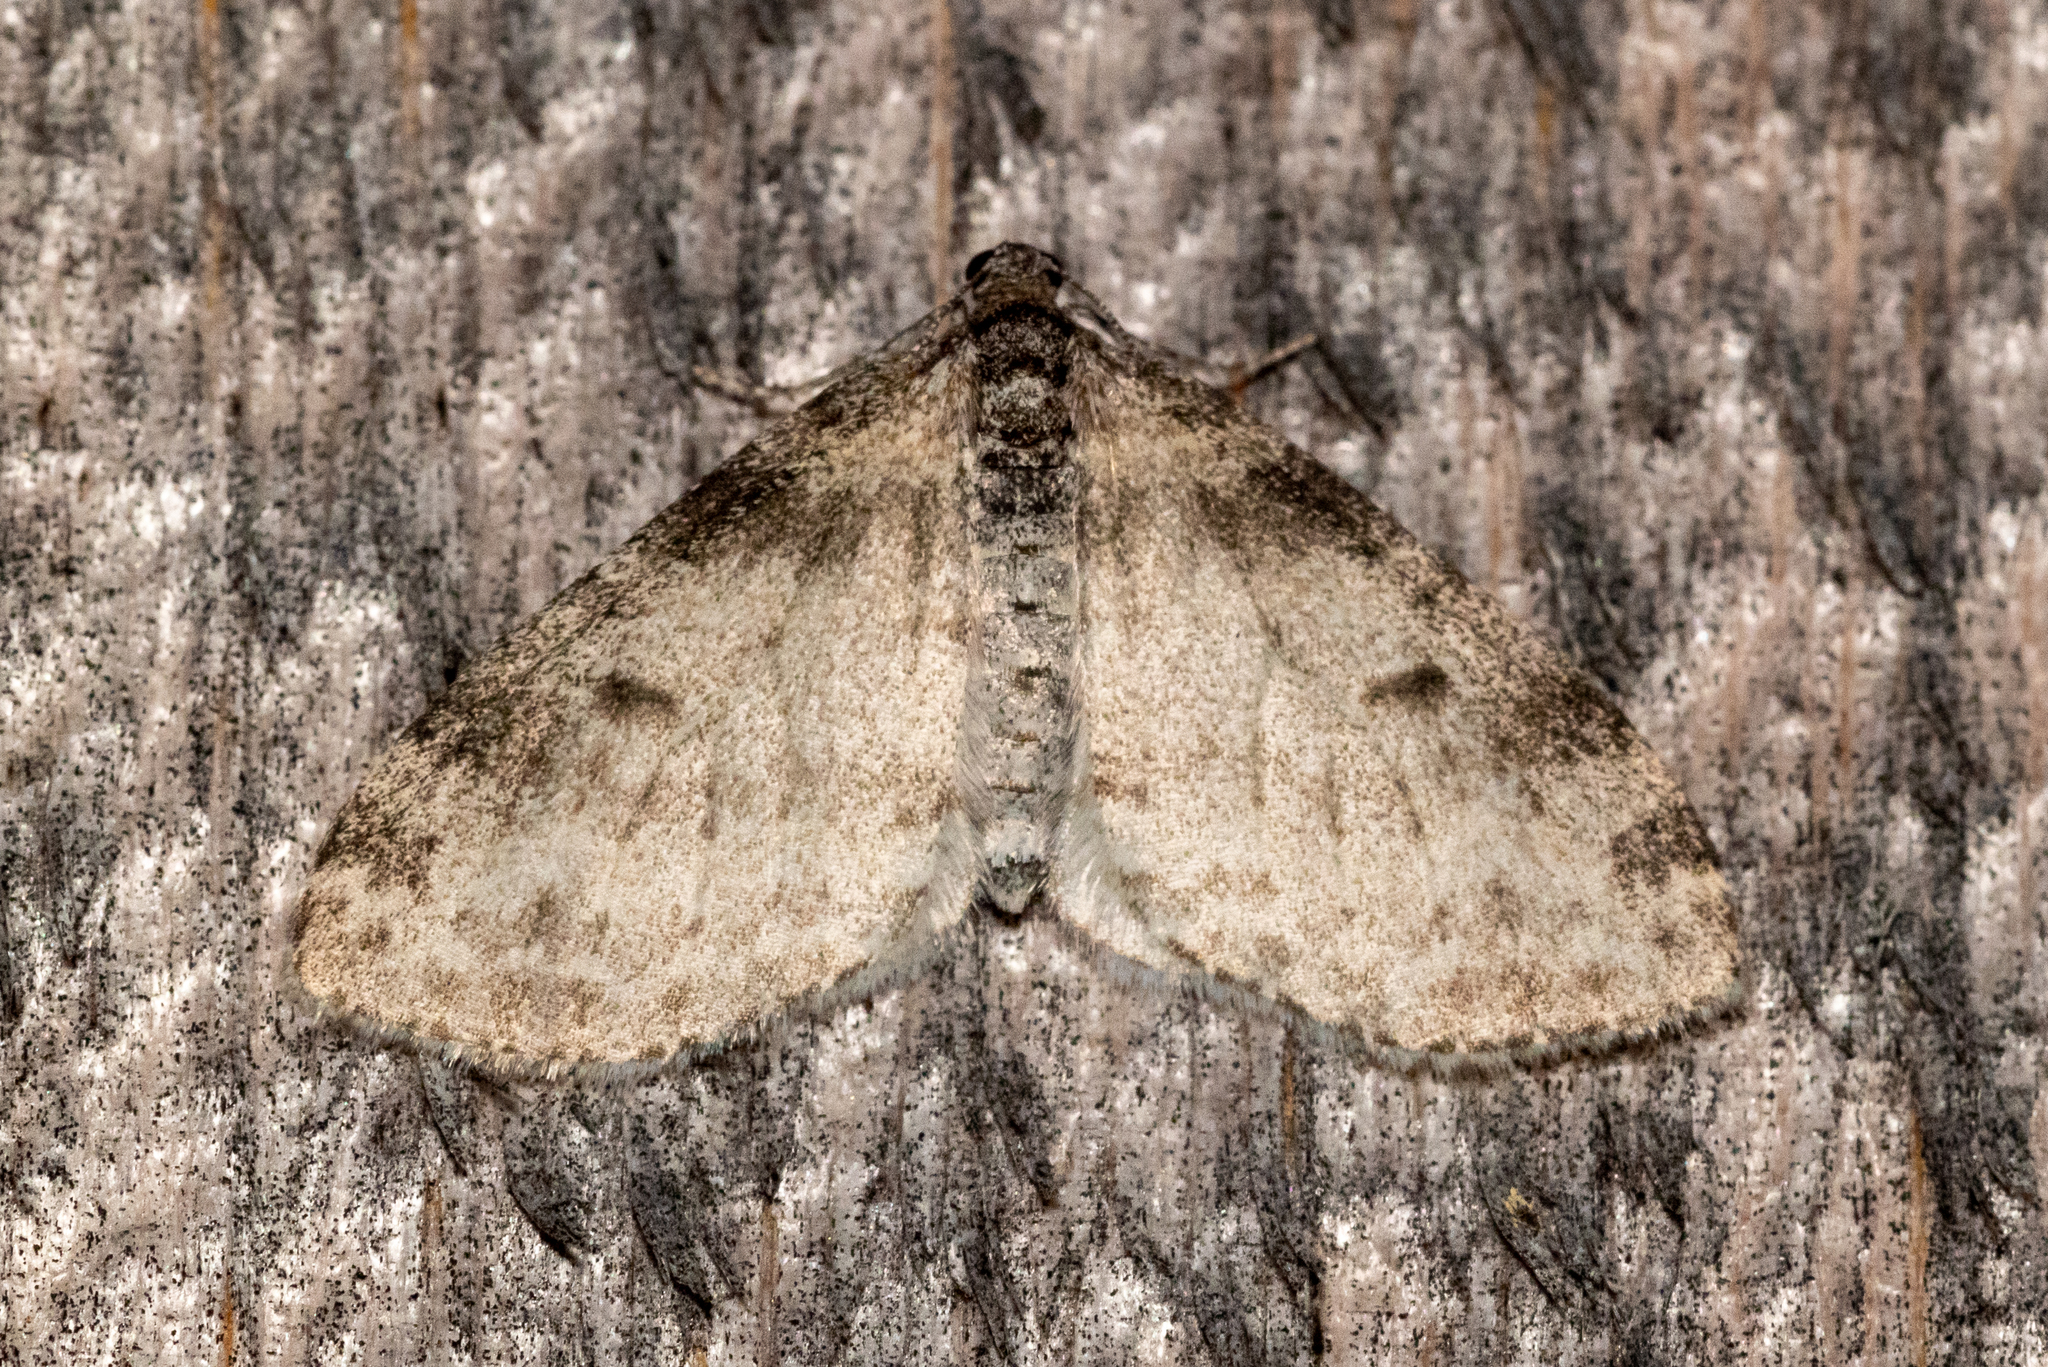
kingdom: Animalia
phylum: Arthropoda
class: Insecta
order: Lepidoptera
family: Geometridae
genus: Lobophora
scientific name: Lobophora nivigerata
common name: Powdered bigwing
